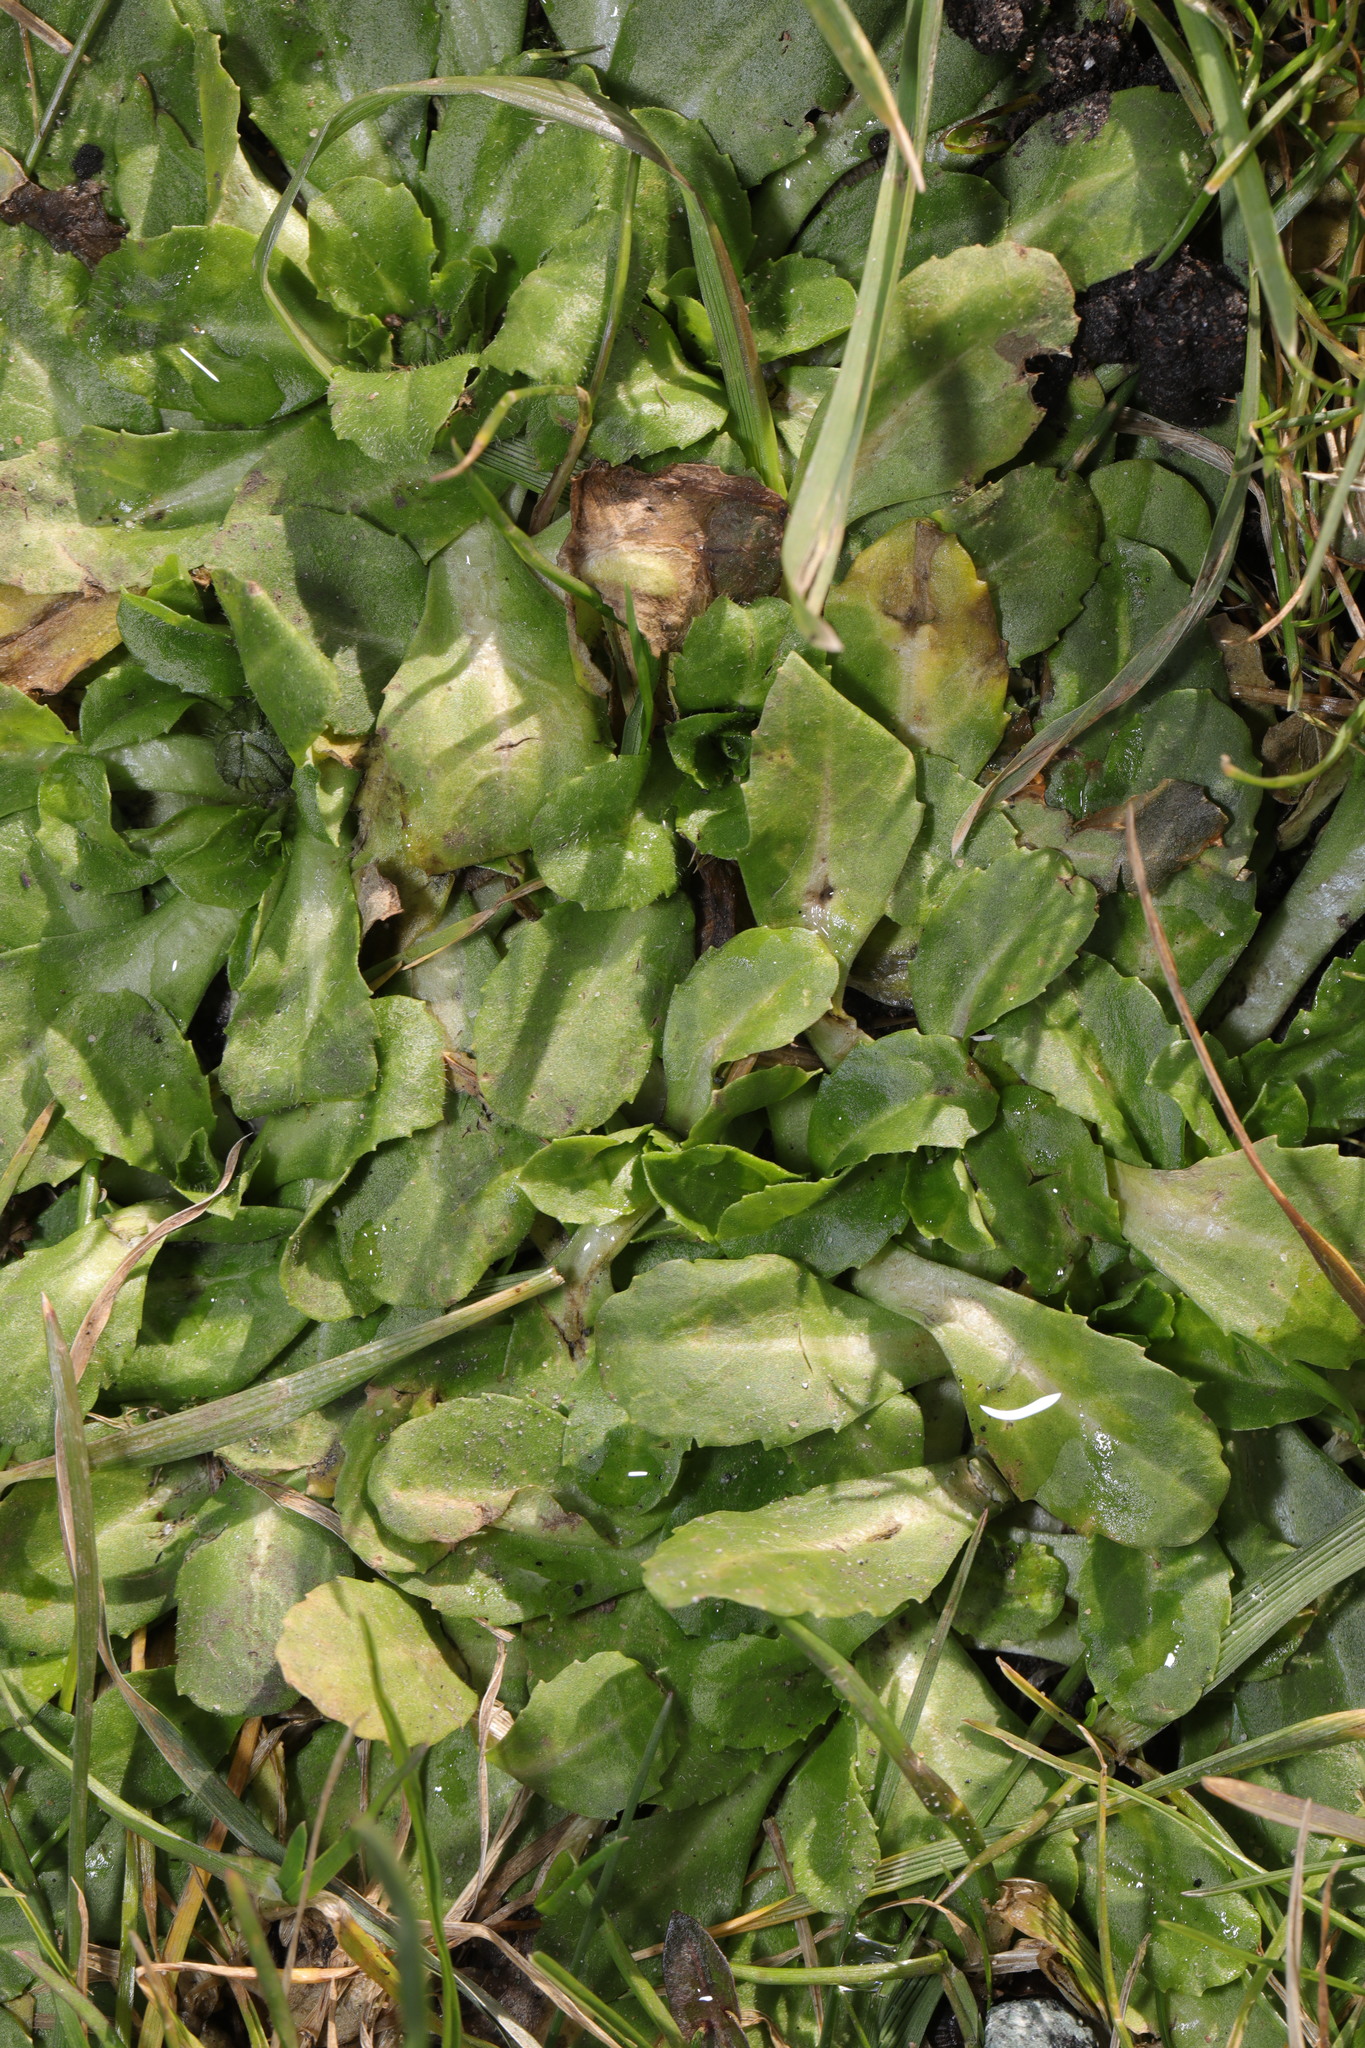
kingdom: Plantae
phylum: Tracheophyta
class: Magnoliopsida
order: Asterales
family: Asteraceae
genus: Bellis
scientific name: Bellis perennis
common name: Lawndaisy
